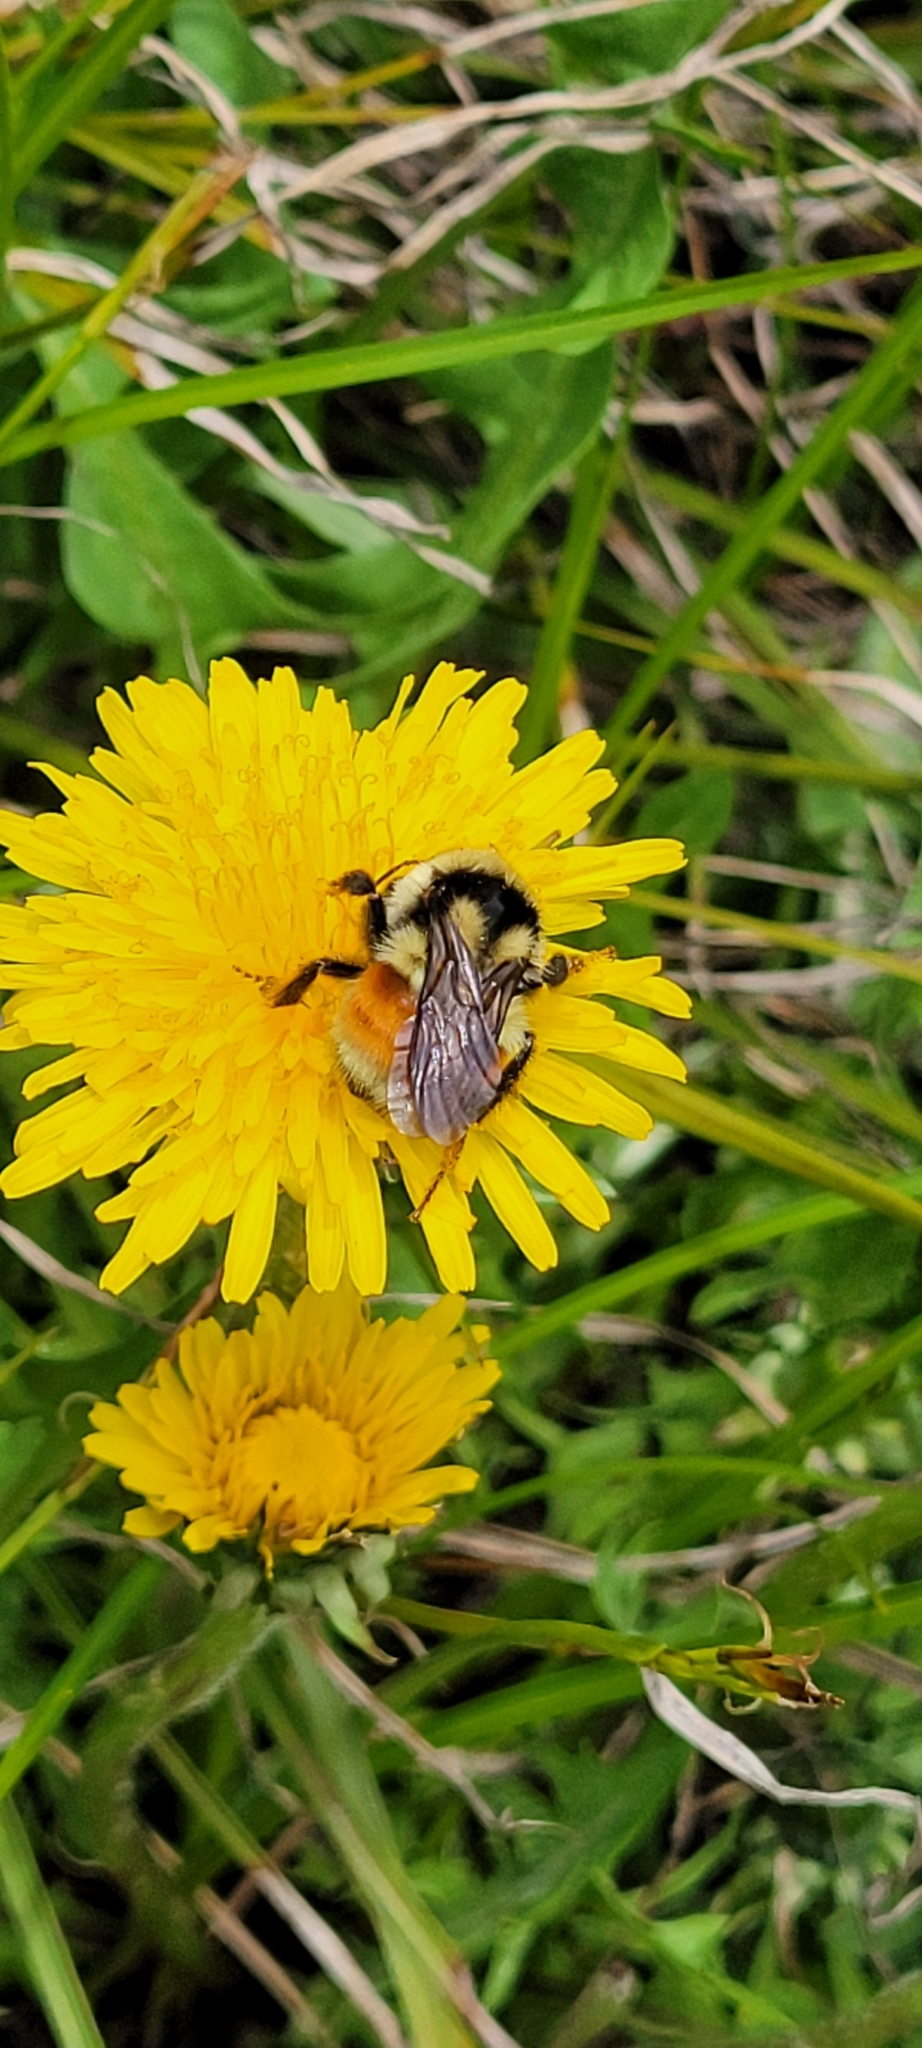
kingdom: Animalia
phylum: Arthropoda
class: Insecta
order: Hymenoptera
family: Apidae
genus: Bombus
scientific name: Bombus bifarius
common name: Two form bumble bee
